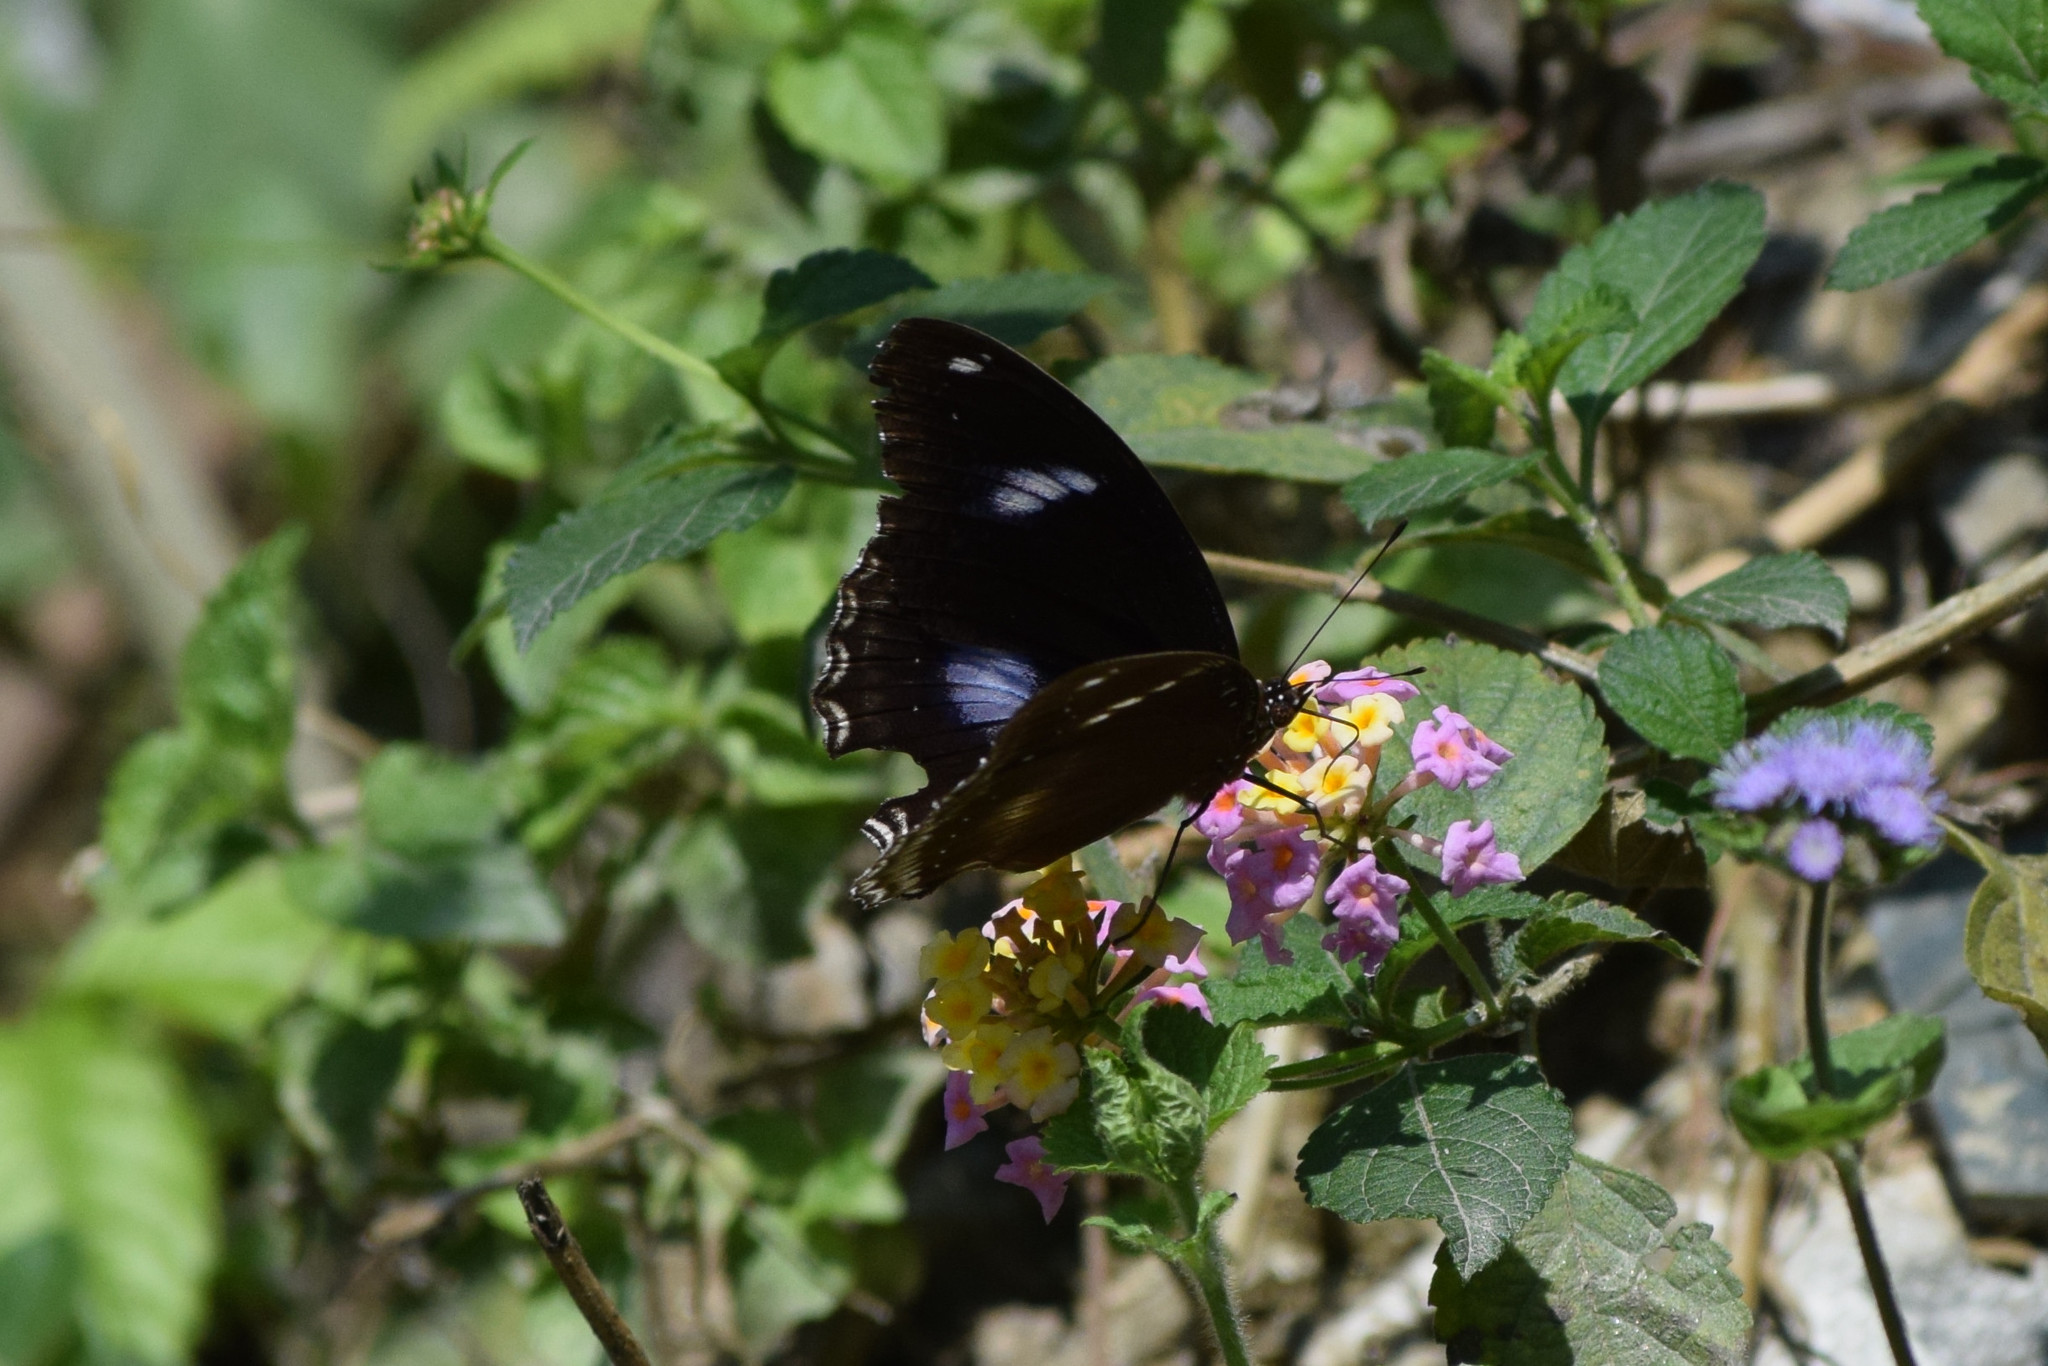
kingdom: Animalia
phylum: Arthropoda
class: Insecta
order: Lepidoptera
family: Nymphalidae
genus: Hypolimnas
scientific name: Hypolimnas bolina
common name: Great eggfly
